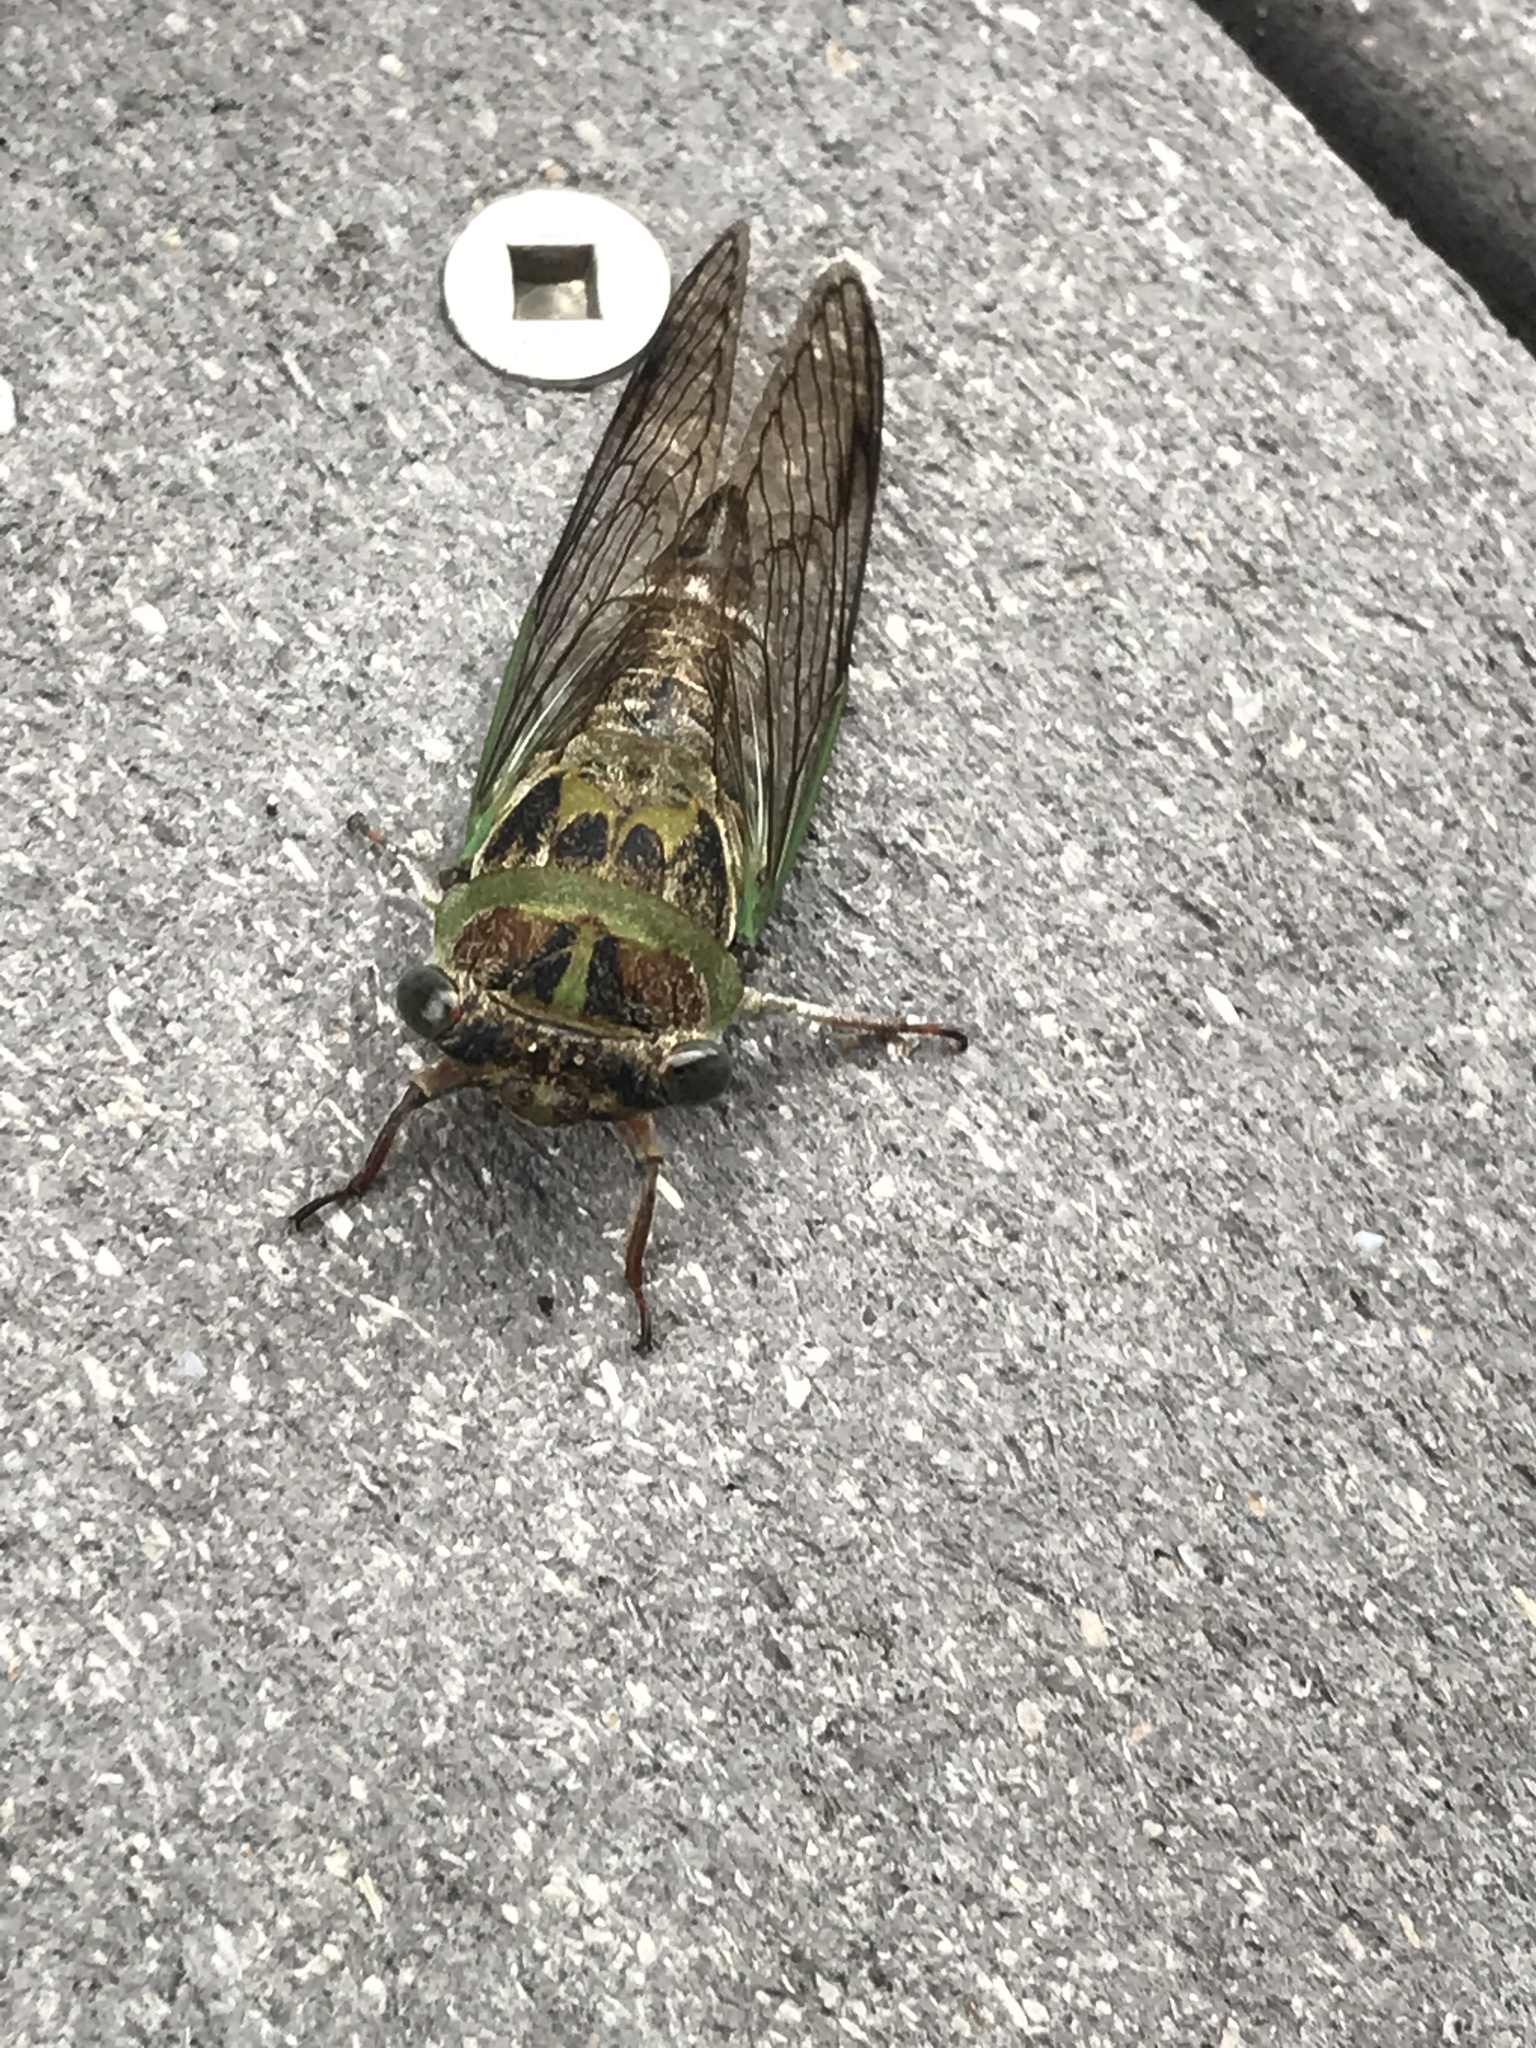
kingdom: Animalia
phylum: Arthropoda
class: Insecta
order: Hemiptera
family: Cicadidae
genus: Neotibicen
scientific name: Neotibicen davisi
